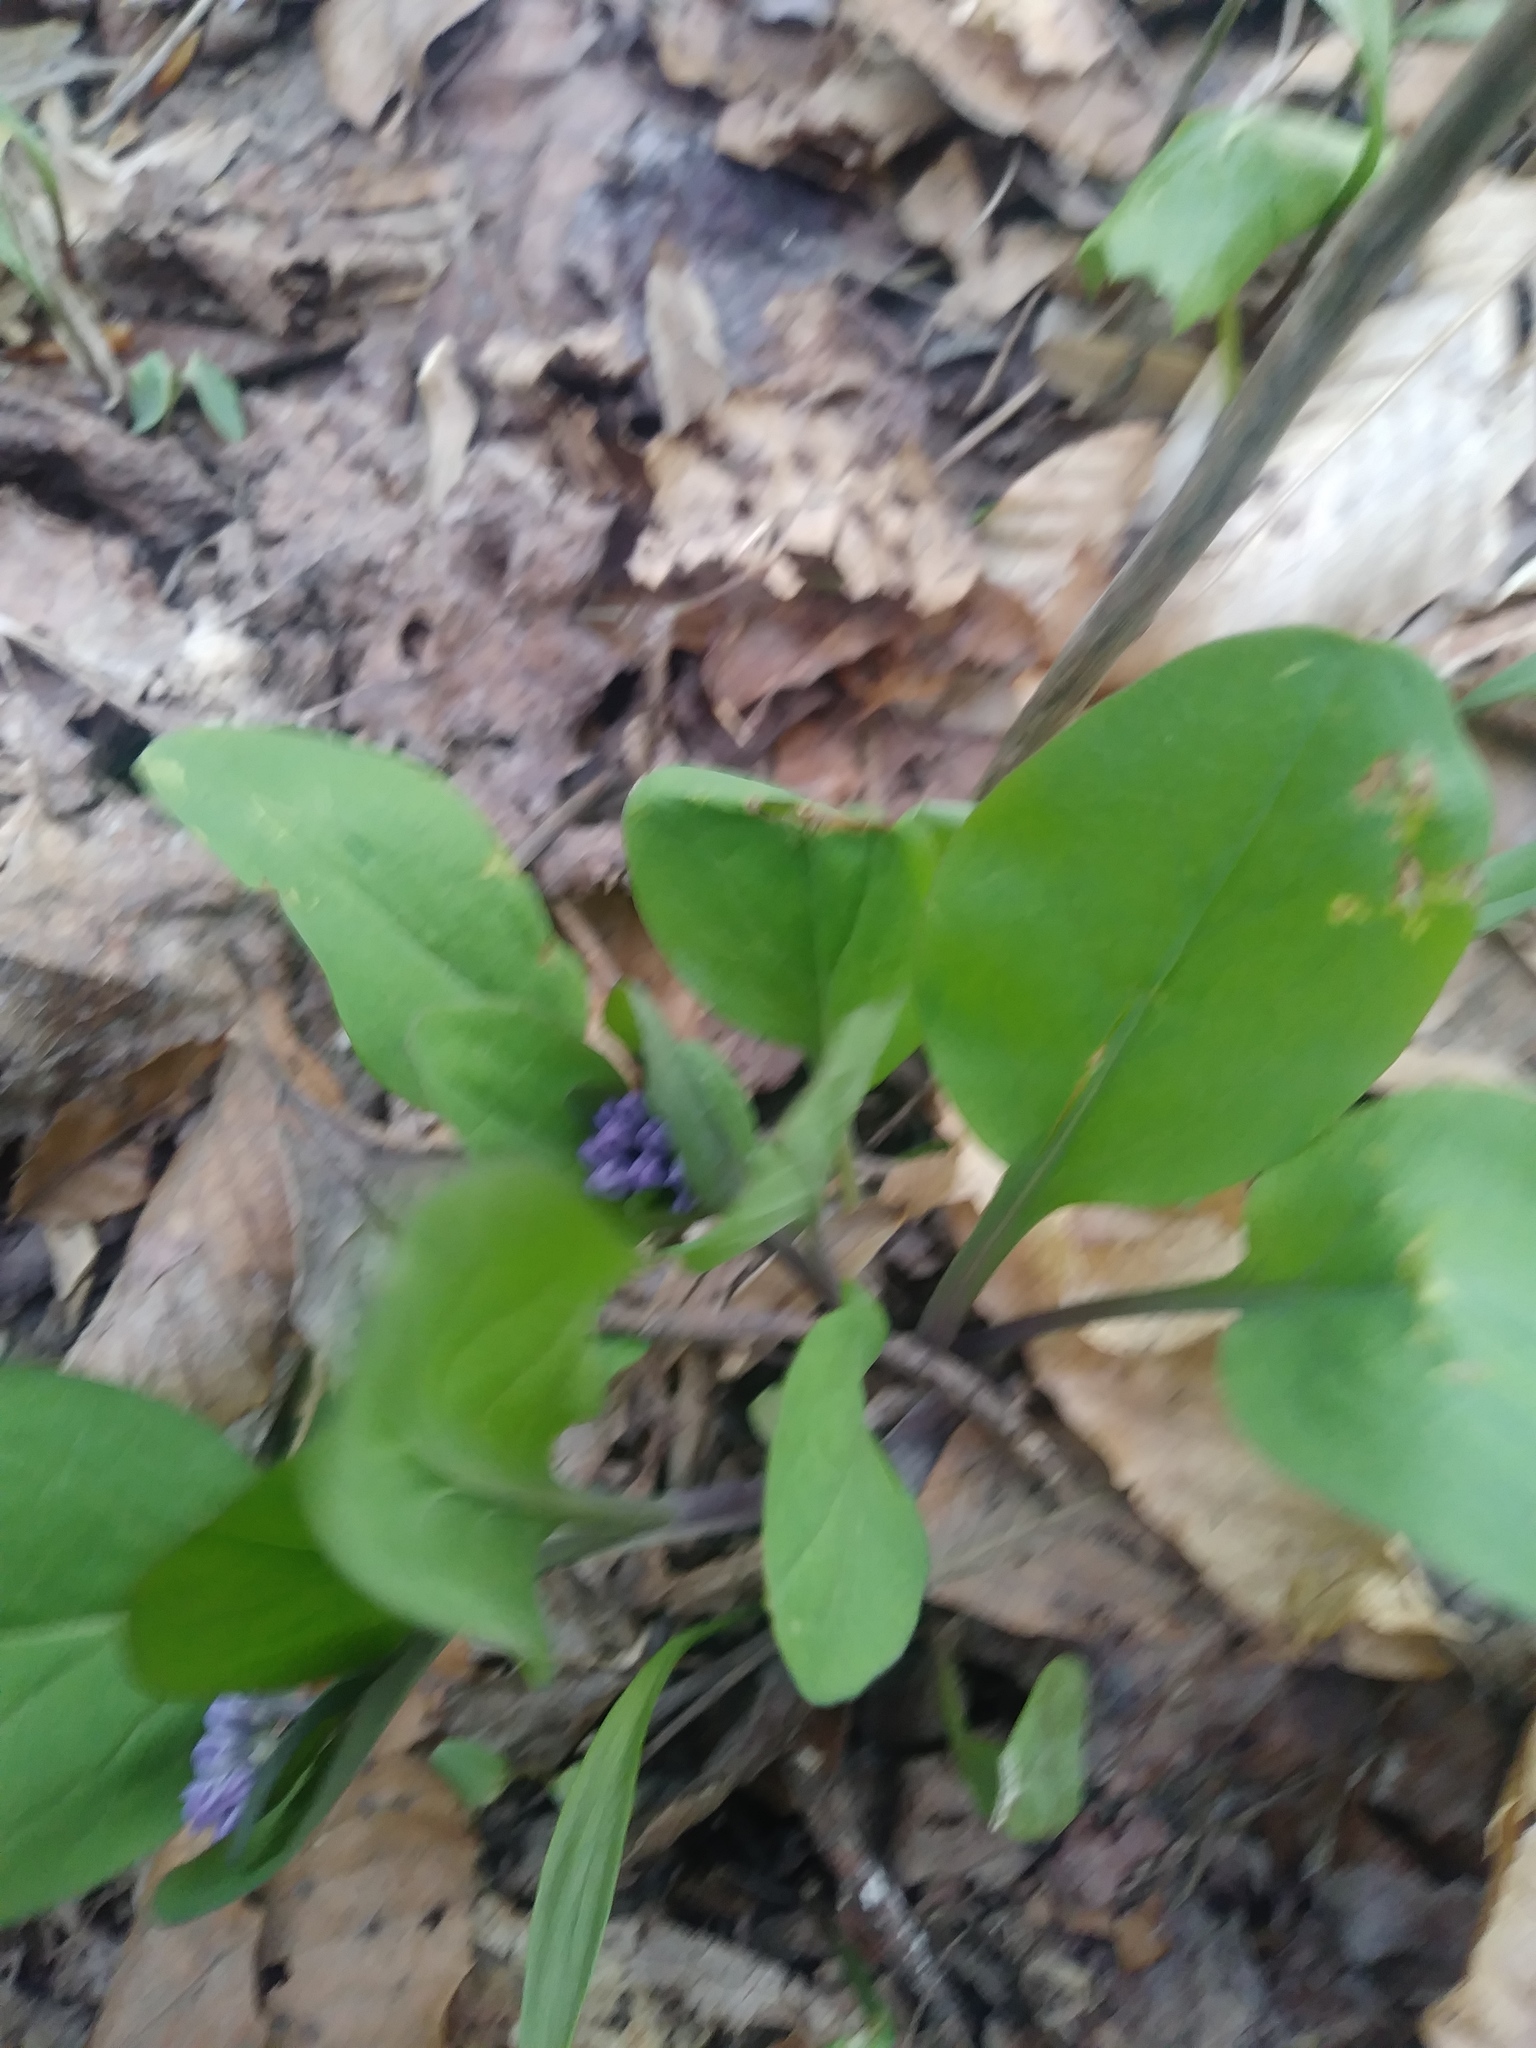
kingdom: Plantae
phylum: Tracheophyta
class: Magnoliopsida
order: Boraginales
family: Boraginaceae
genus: Mertensia
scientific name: Mertensia virginica
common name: Virginia bluebells
